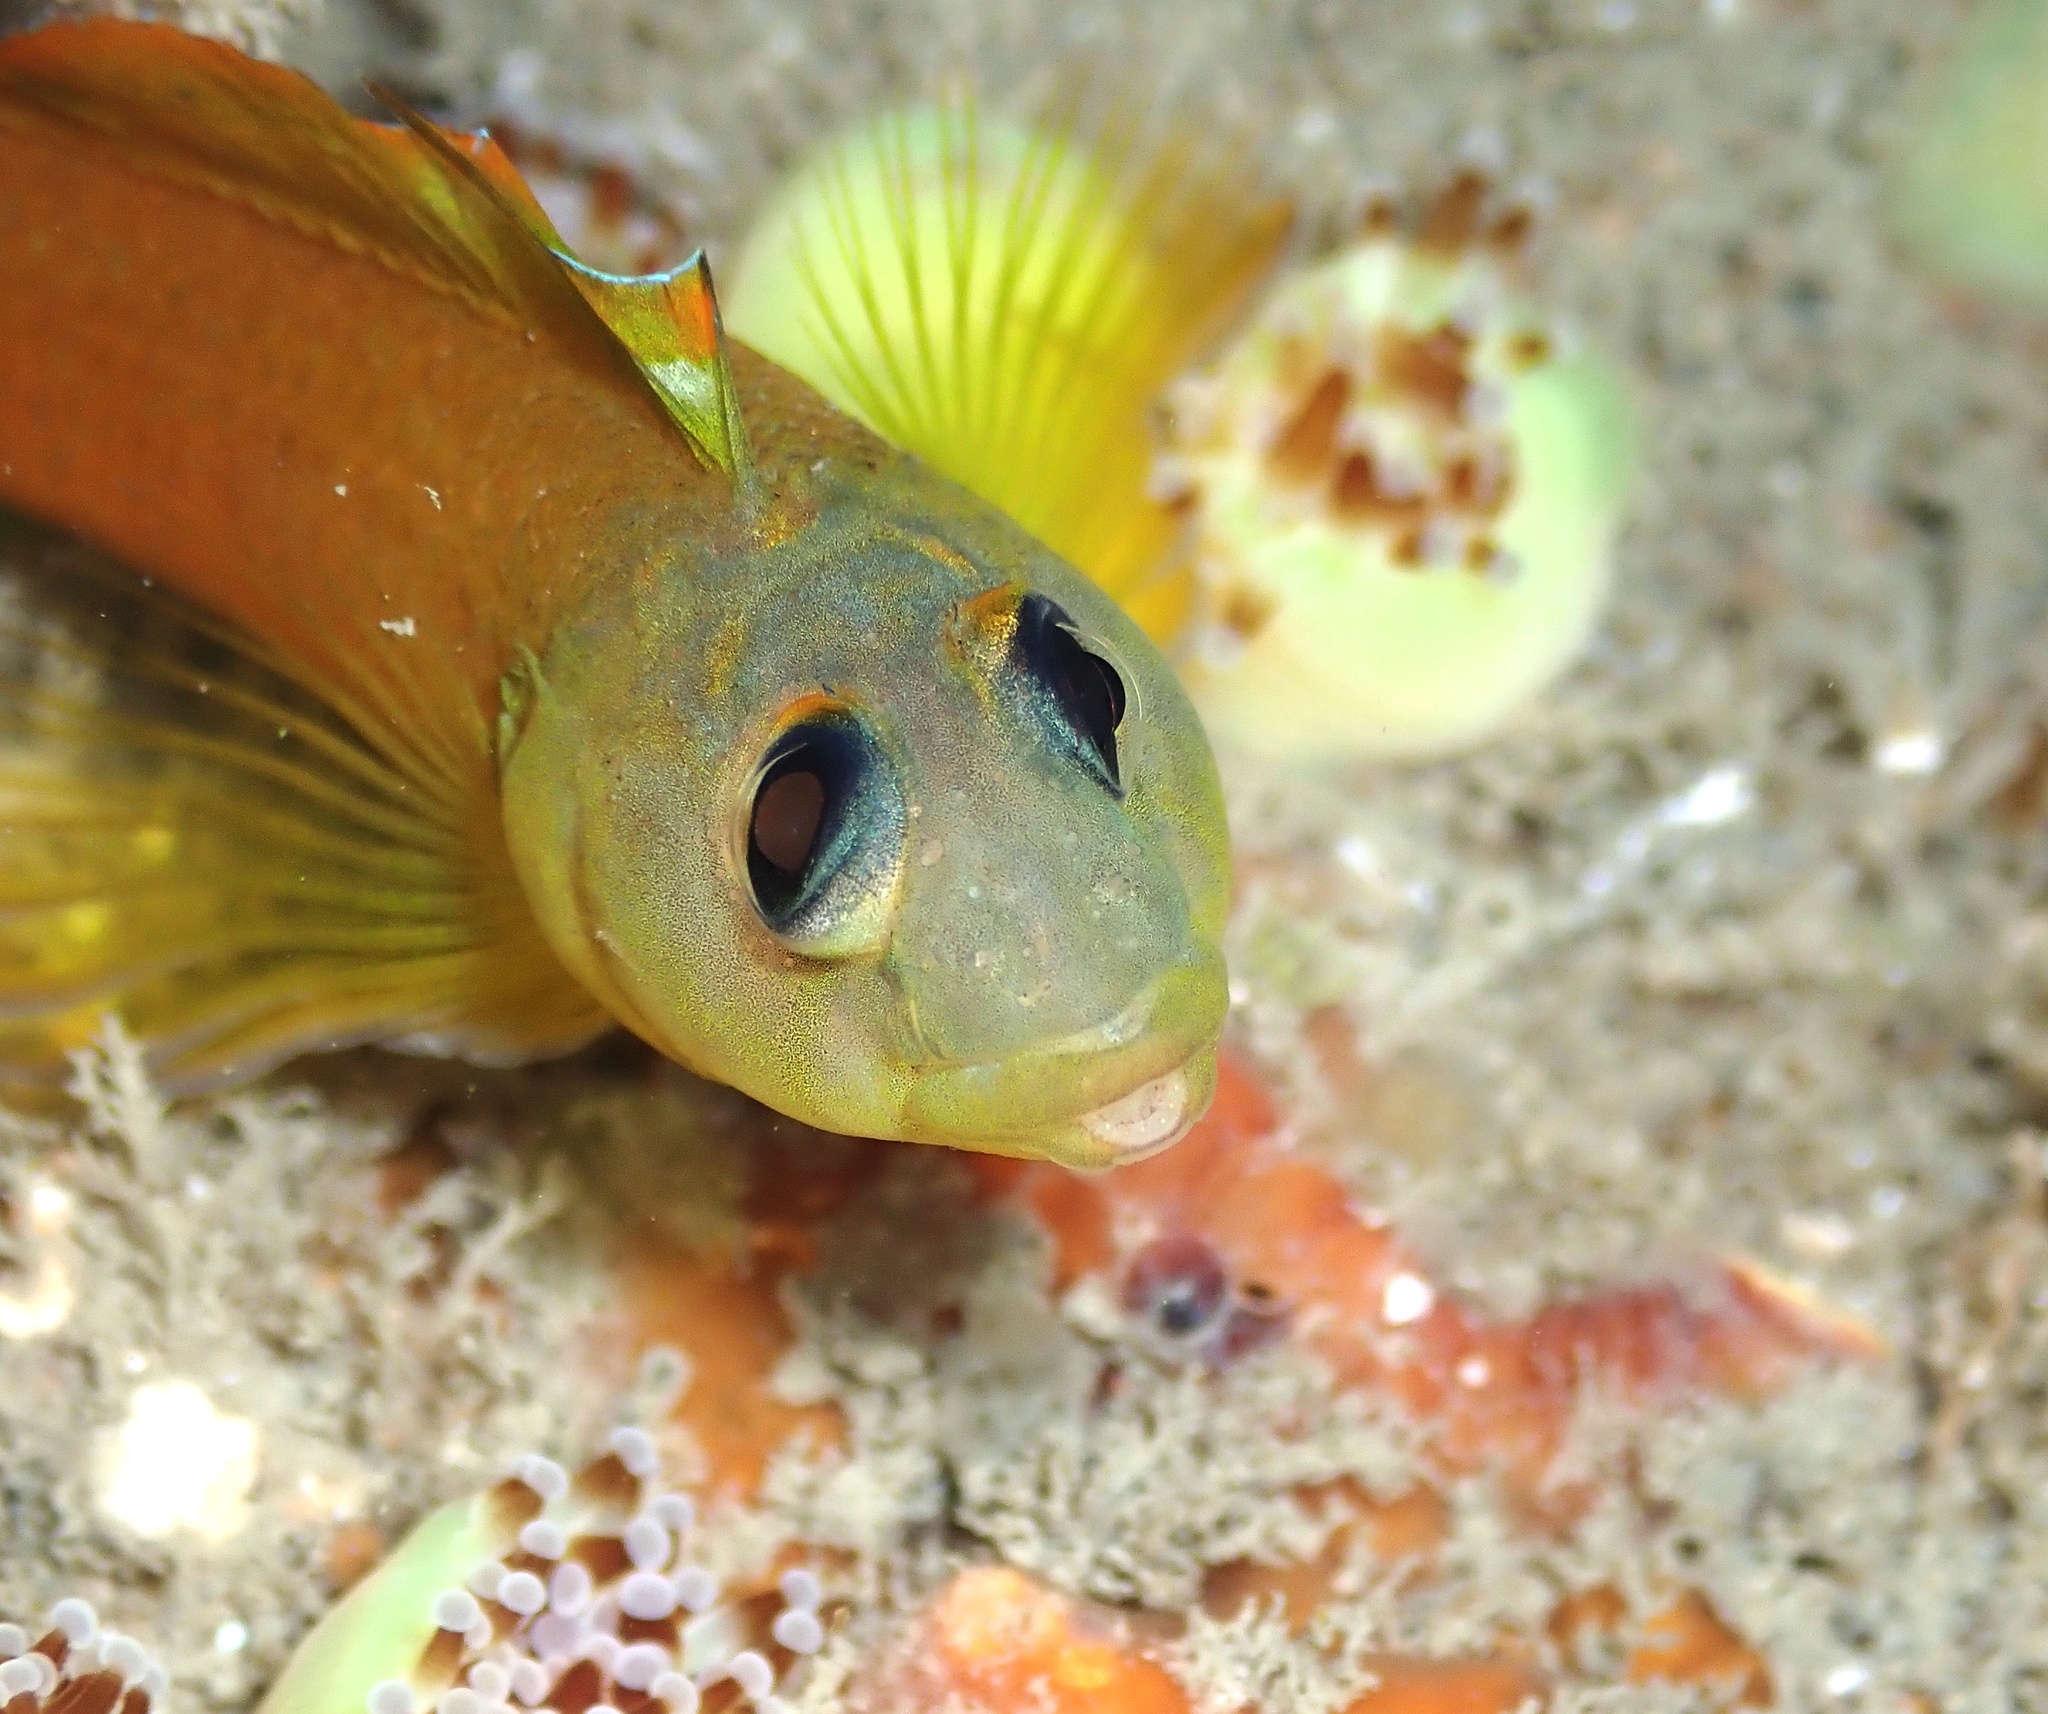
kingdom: Animalia
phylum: Chordata
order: Perciformes
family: Tripterygiidae
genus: Notoclinops
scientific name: Notoclinops yaldwyni
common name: Yaldwyn's triplefin
